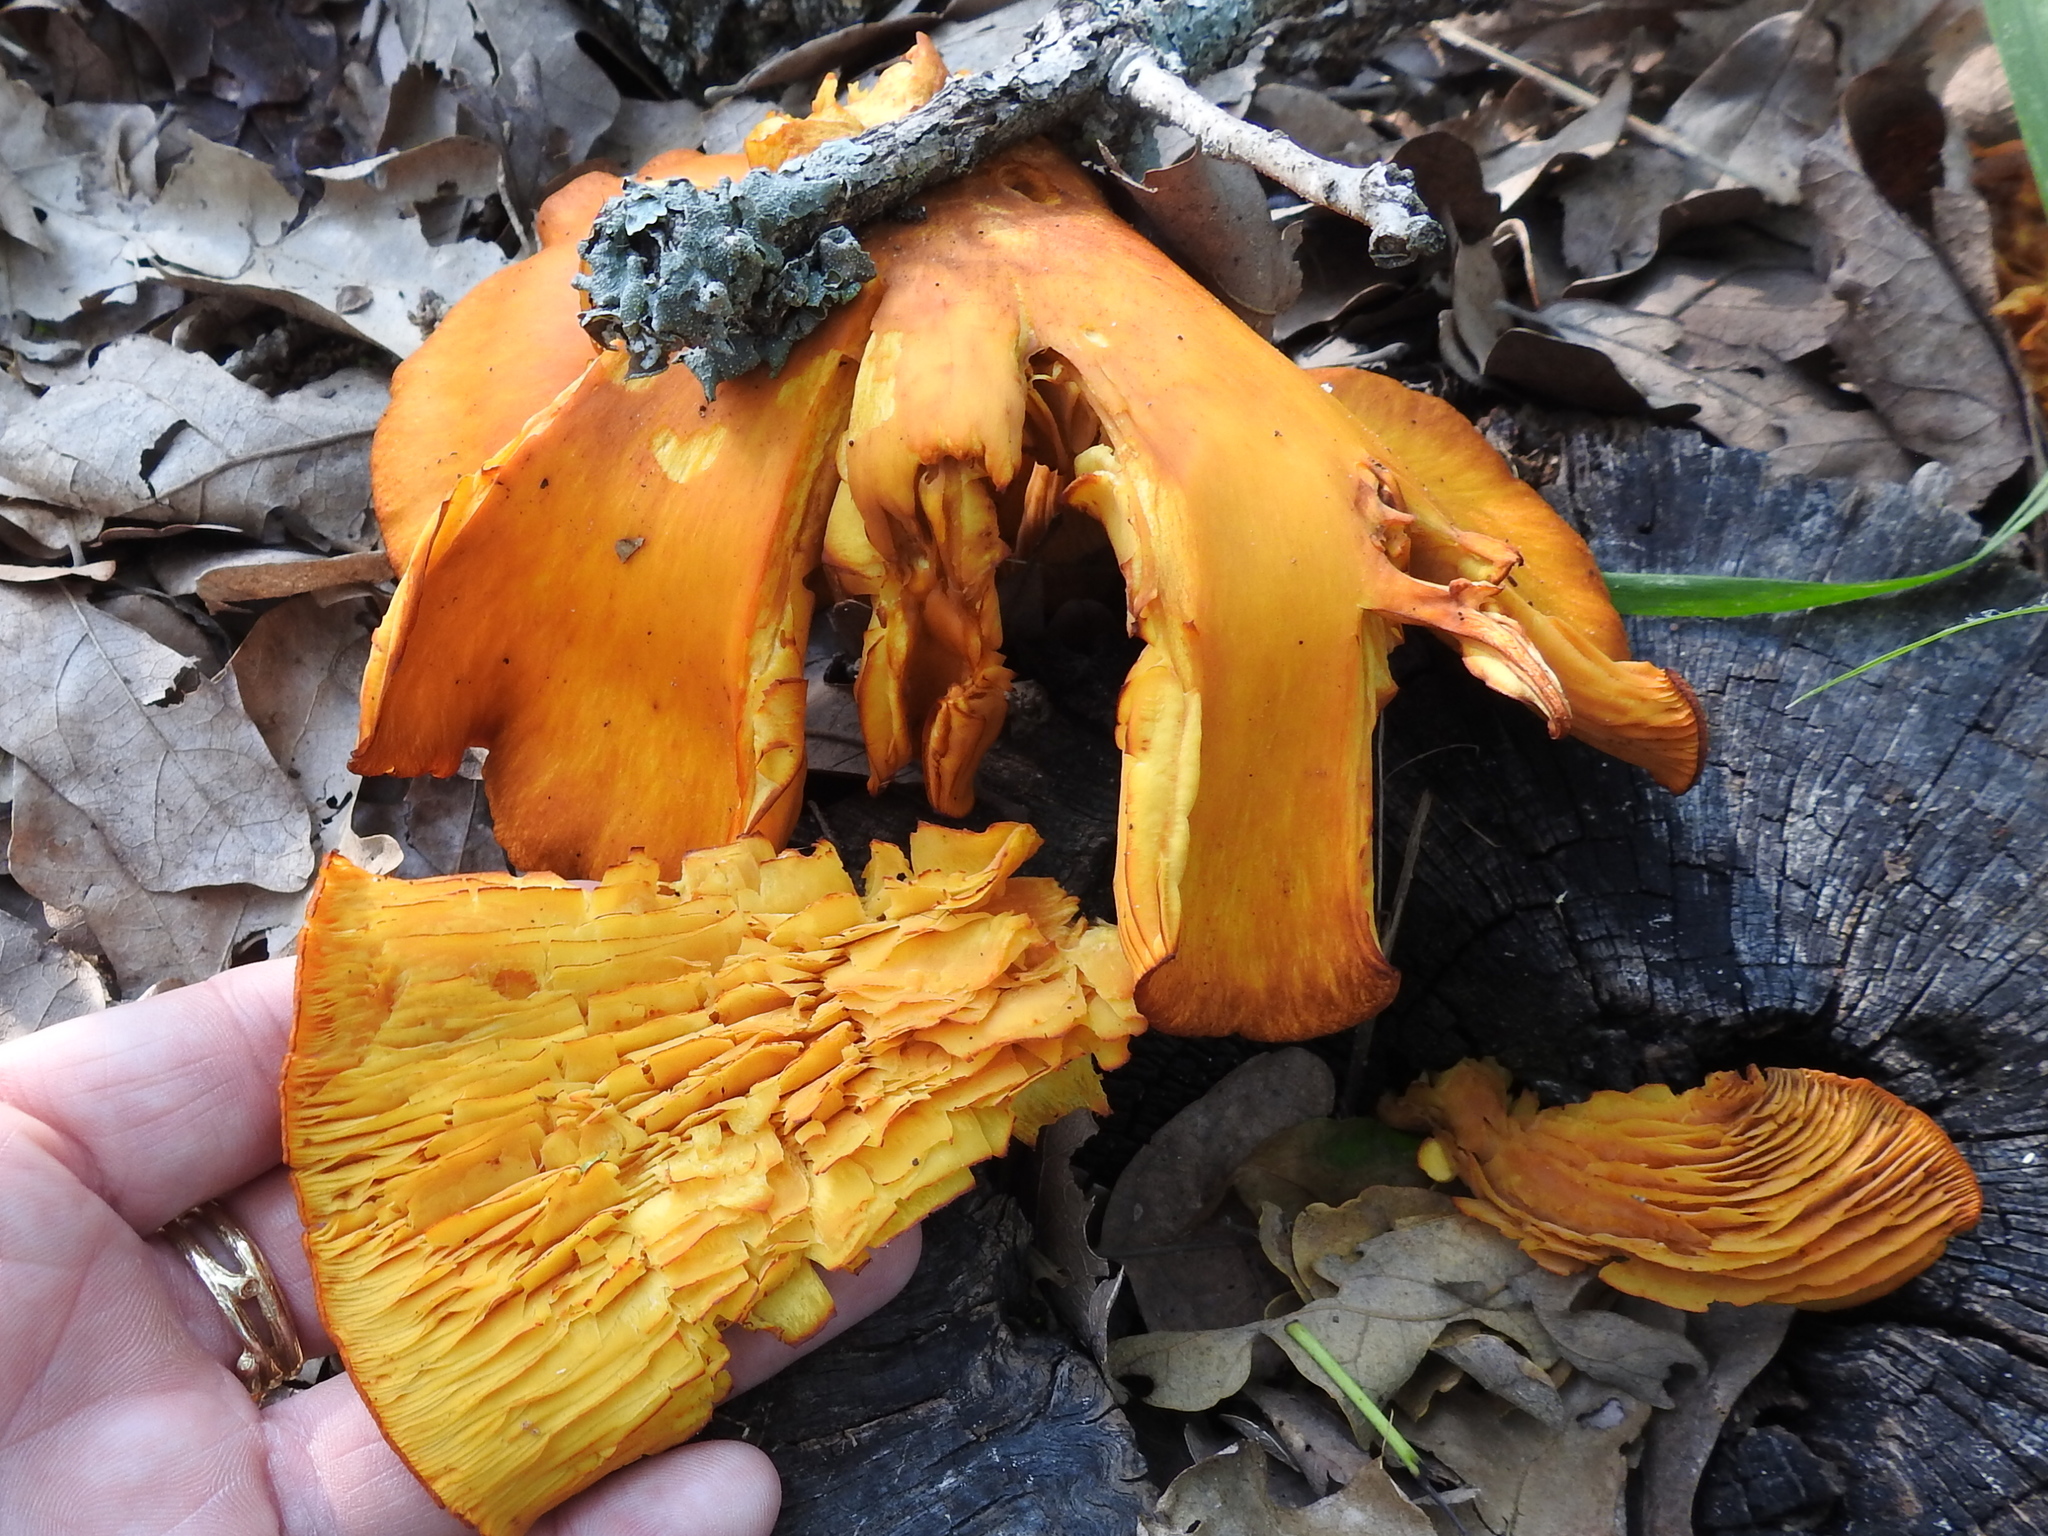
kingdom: Fungi
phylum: Basidiomycota
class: Agaricomycetes
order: Agaricales
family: Omphalotaceae
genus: Omphalotus
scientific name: Omphalotus subilludens
